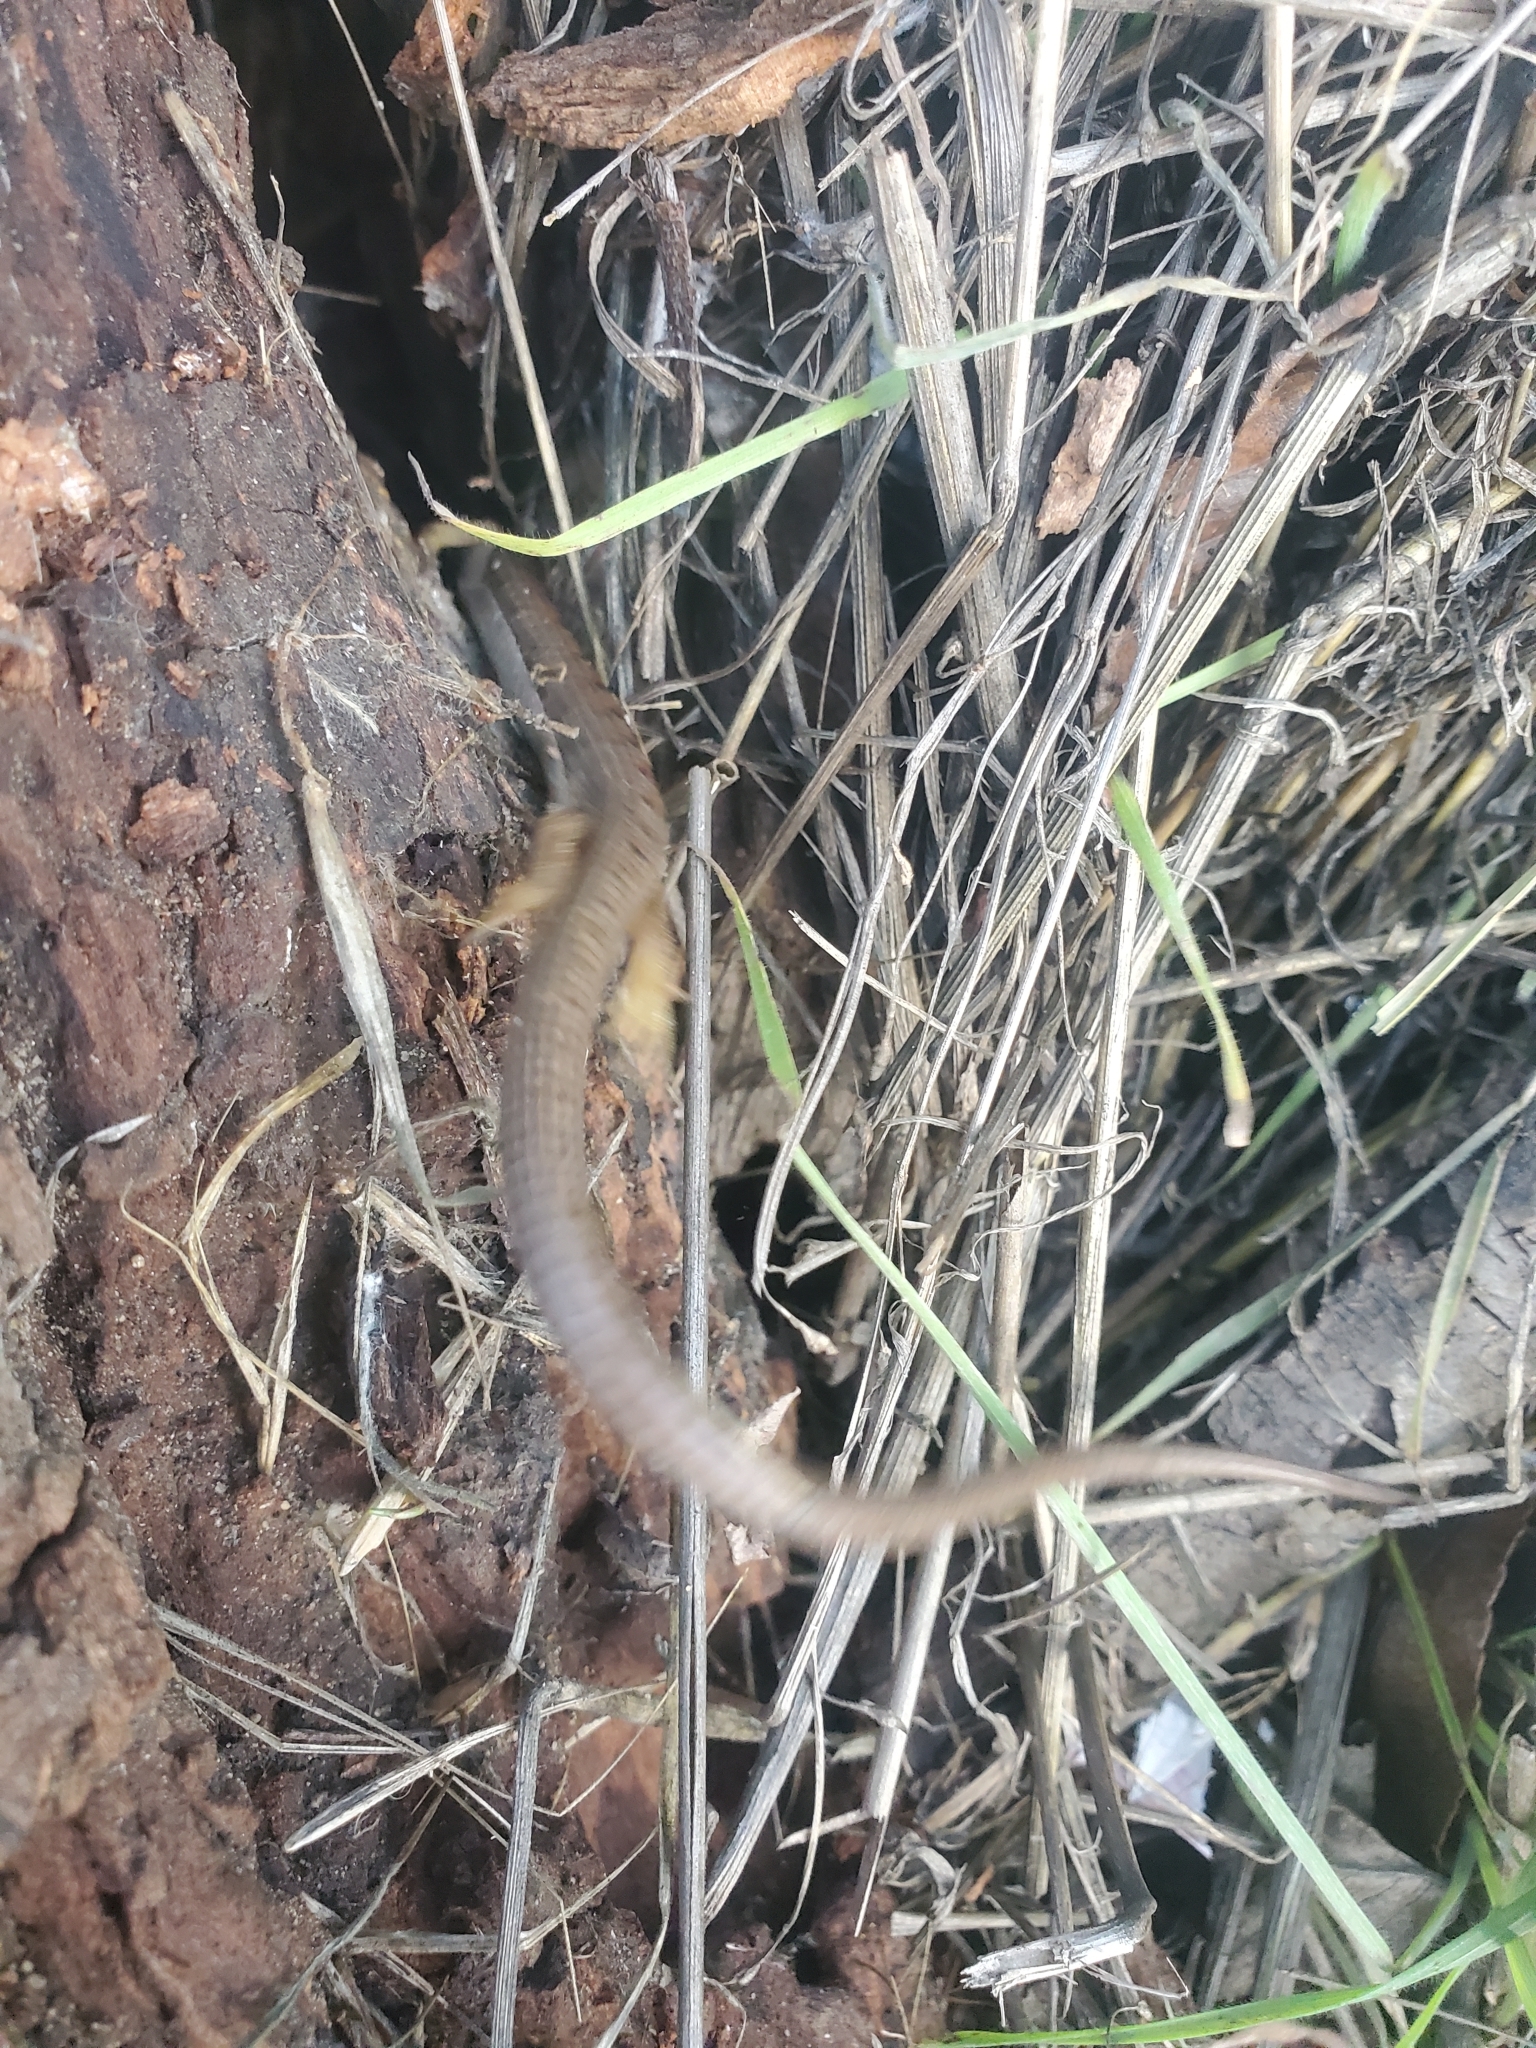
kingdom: Animalia
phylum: Chordata
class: Squamata
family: Anguidae
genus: Elgaria
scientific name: Elgaria multicarinata
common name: Southern alligator lizard
